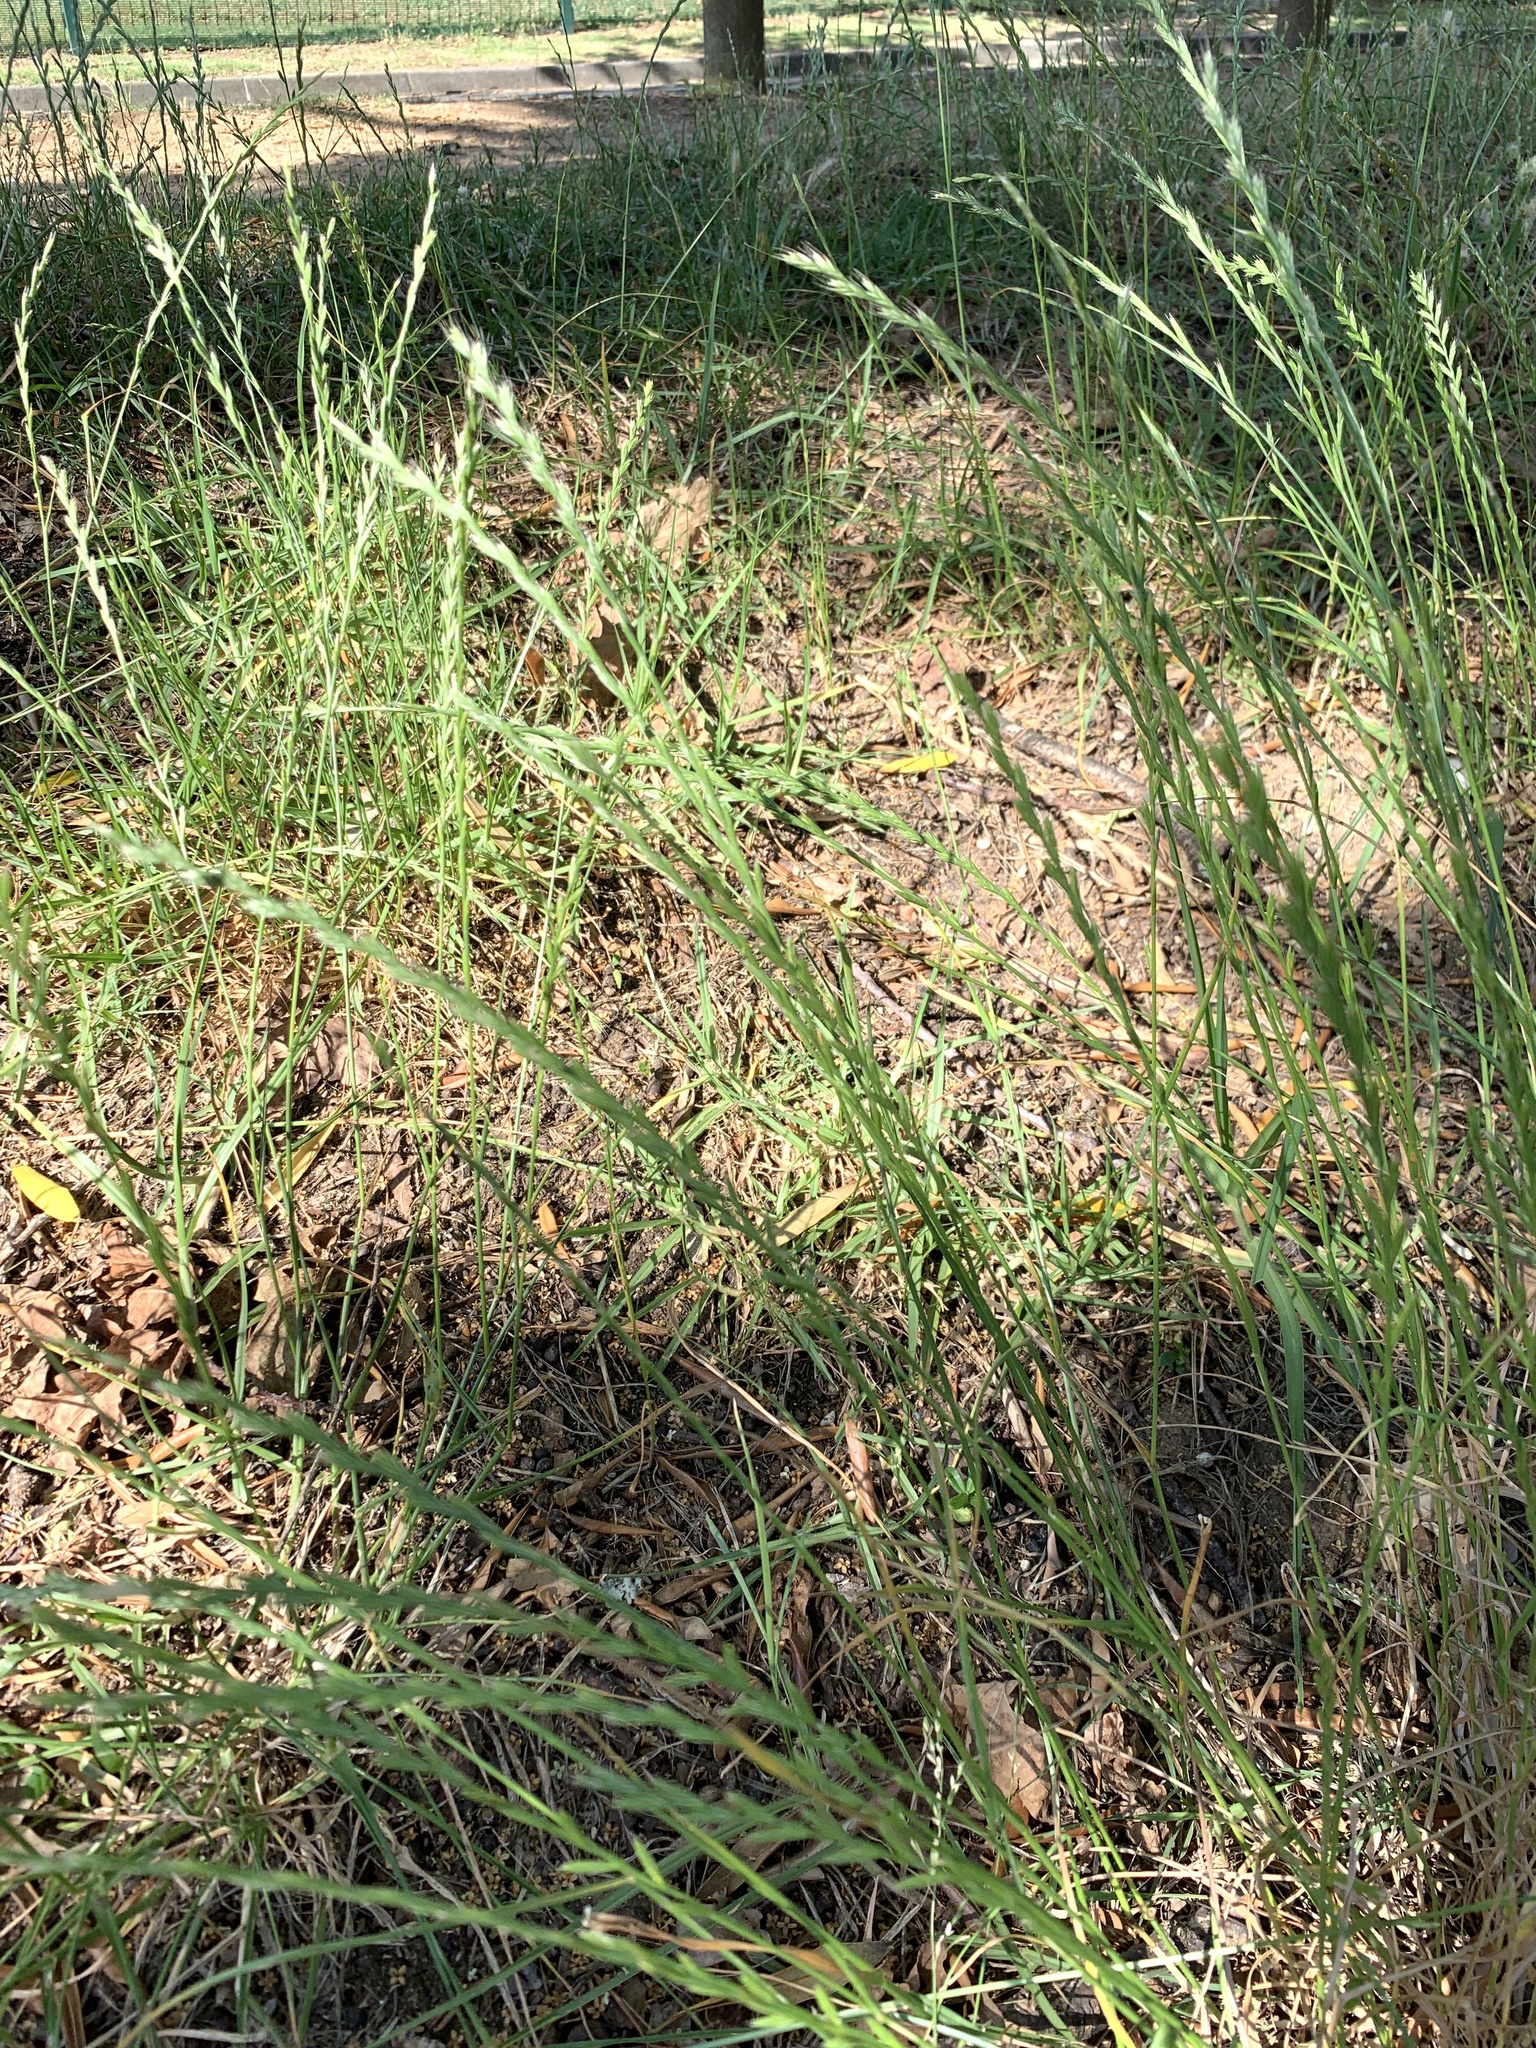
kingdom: Plantae
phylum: Tracheophyta
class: Liliopsida
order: Poales
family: Poaceae
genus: Lolium
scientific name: Lolium multiflorum
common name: Annual ryegrass
